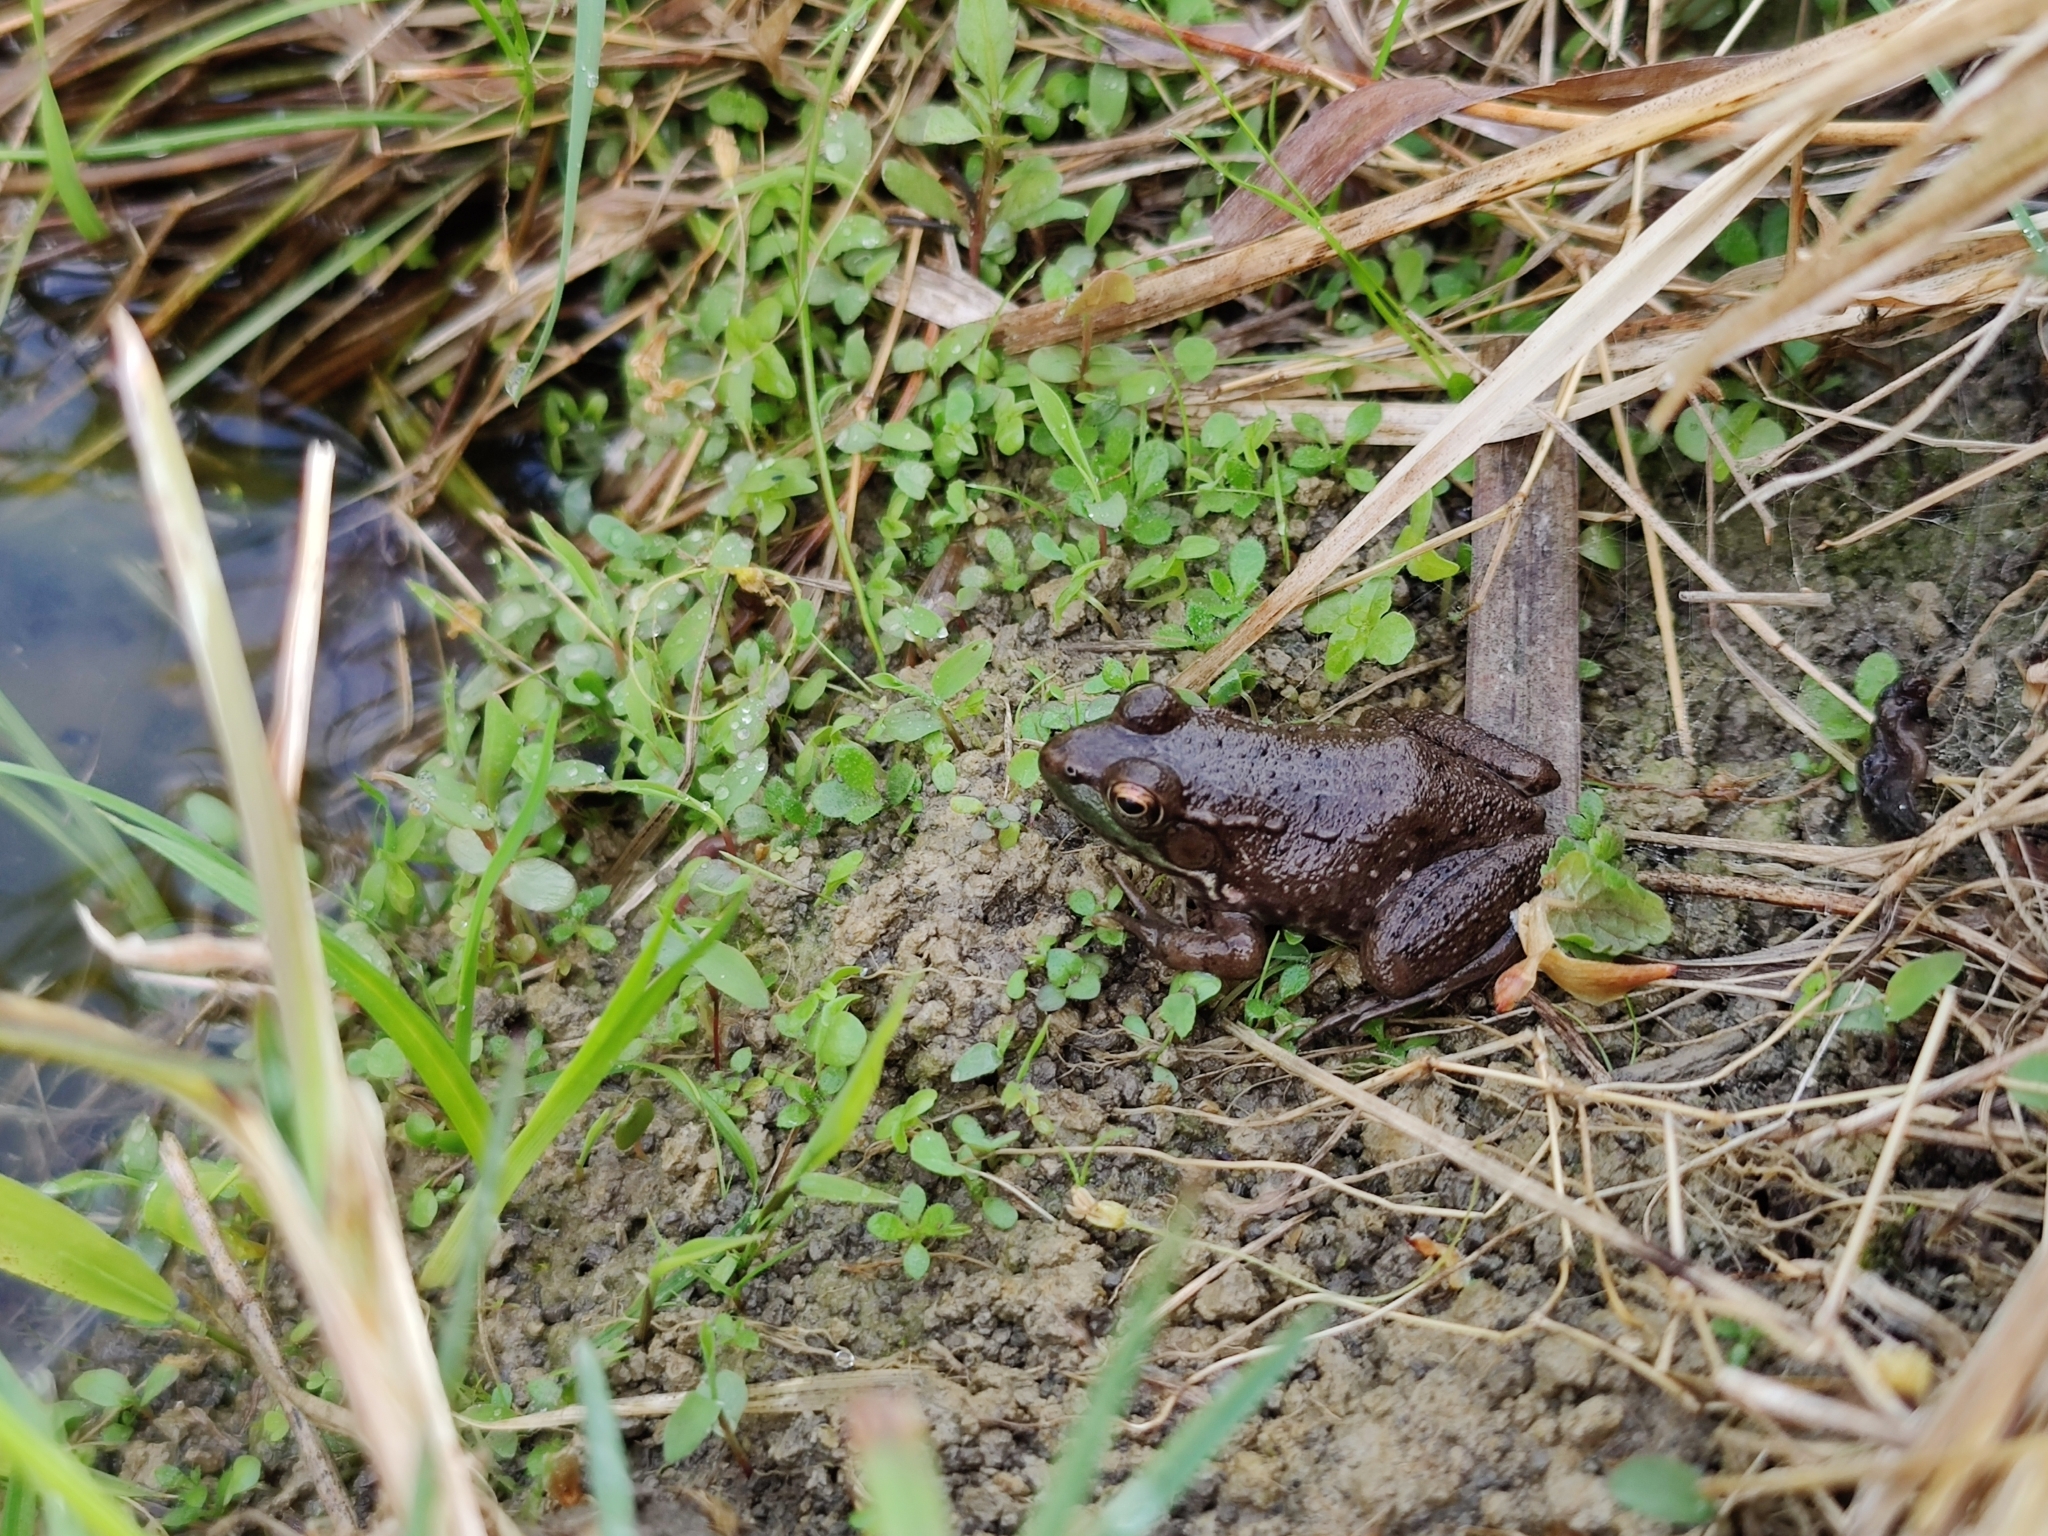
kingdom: Animalia
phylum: Chordata
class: Amphibia
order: Anura
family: Ranidae
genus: Lithobates
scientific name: Lithobates clamitans
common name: Green frog
